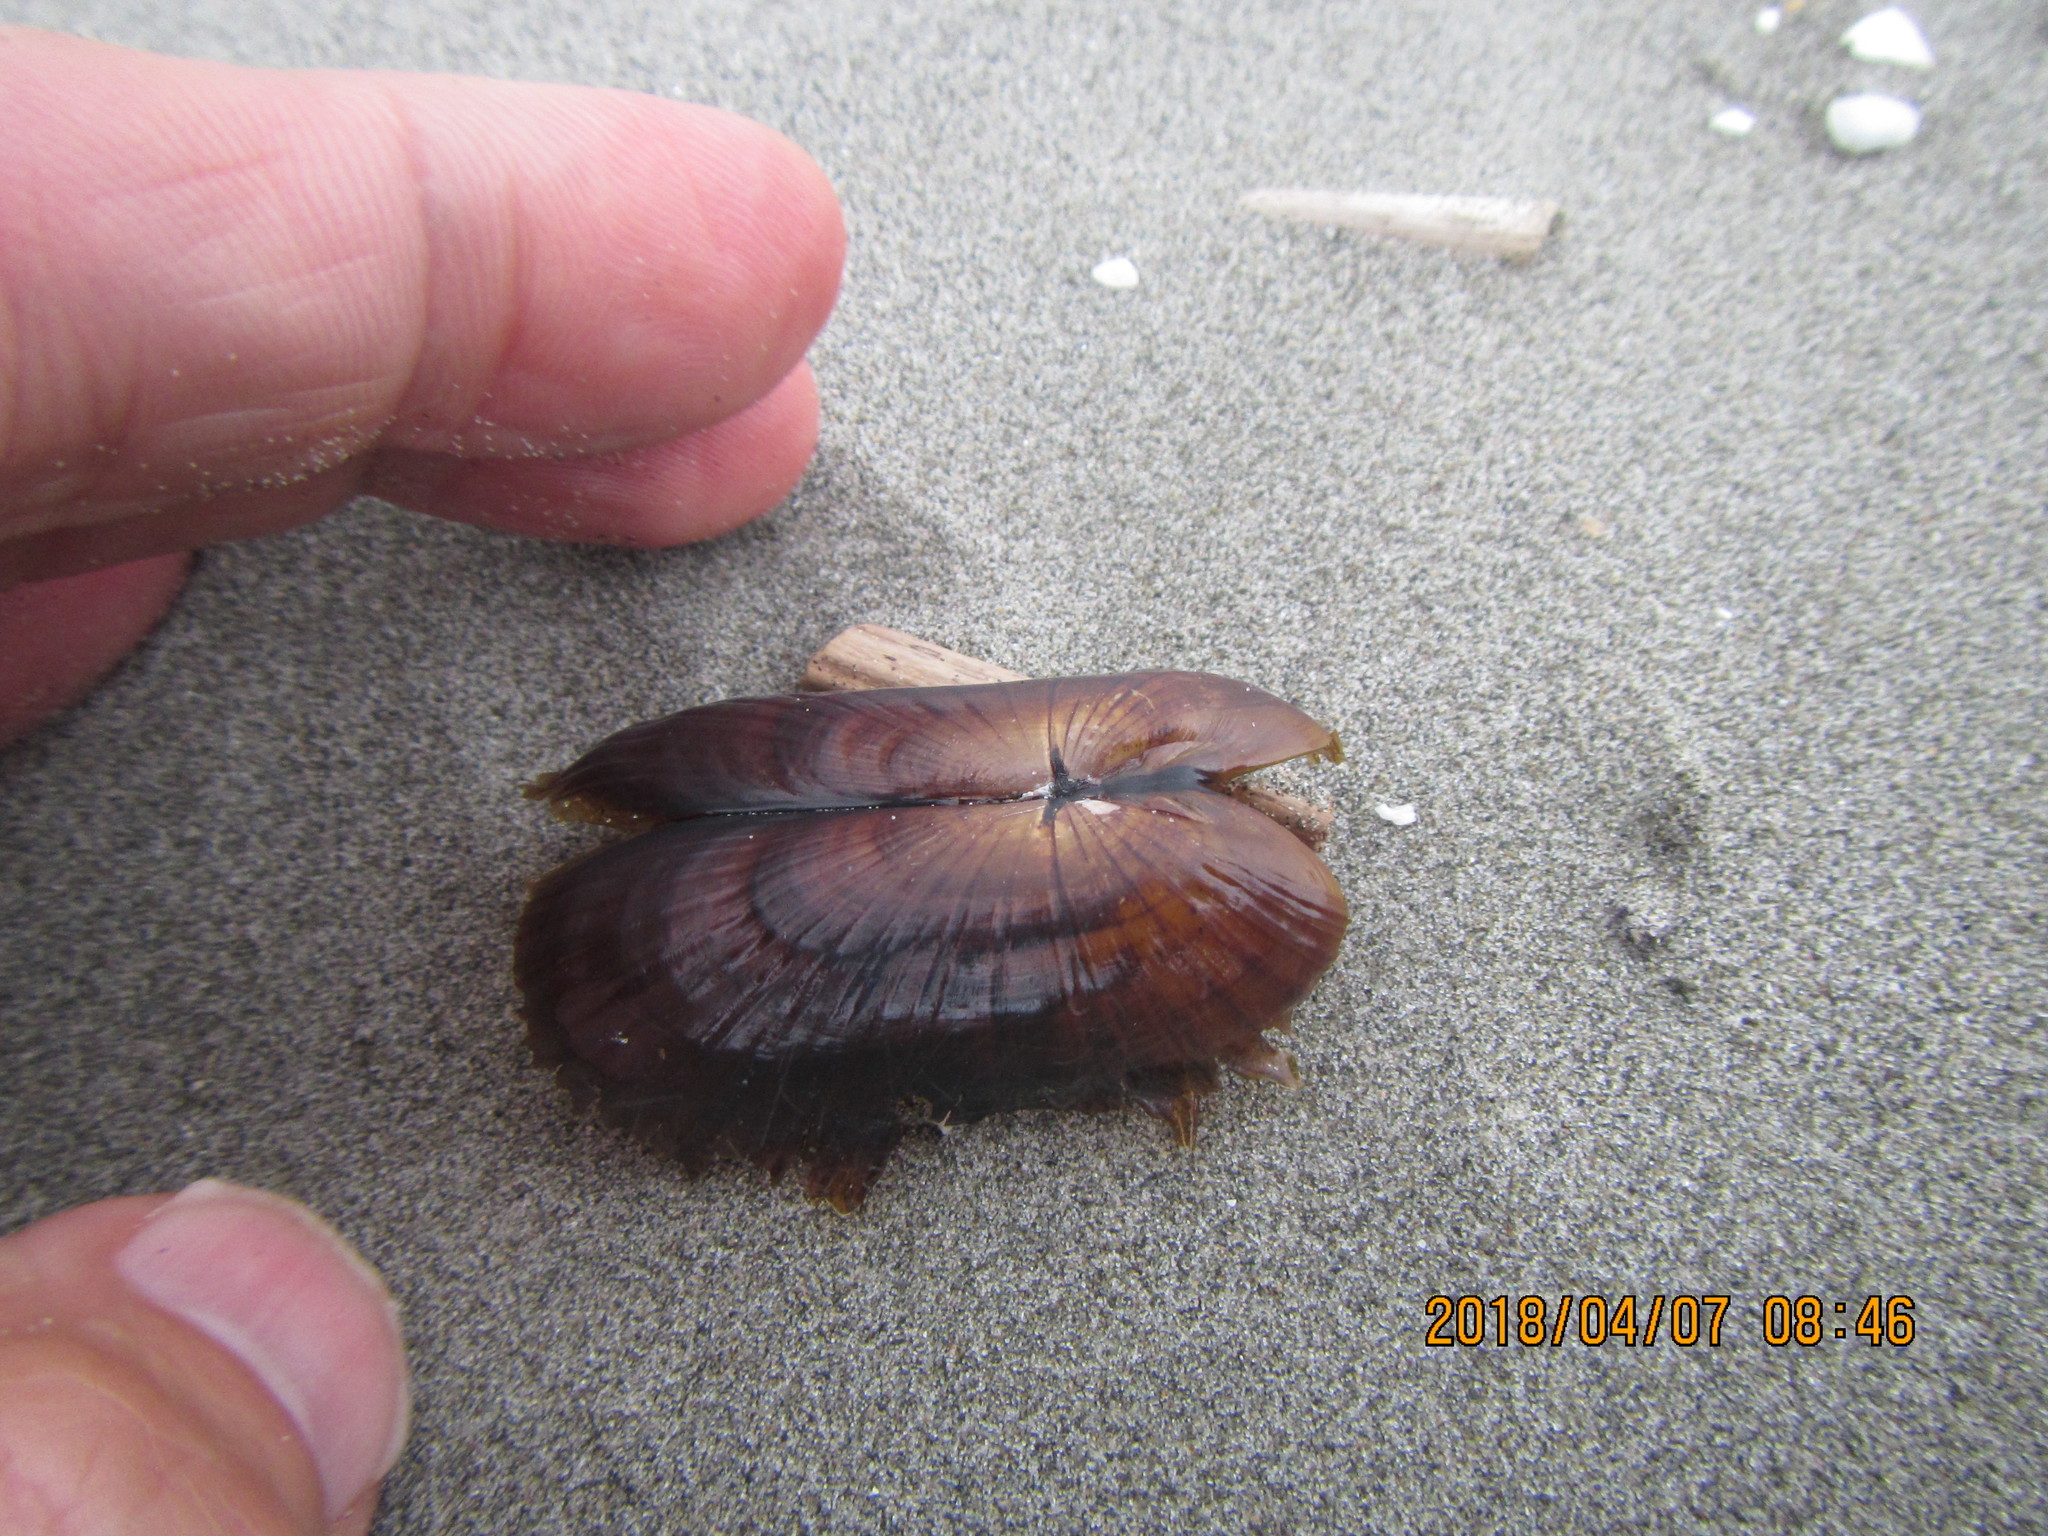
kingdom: Animalia
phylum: Mollusca
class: Bivalvia
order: Solemyida
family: Solemyidae
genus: Solemya
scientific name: Solemya parkinsonii
